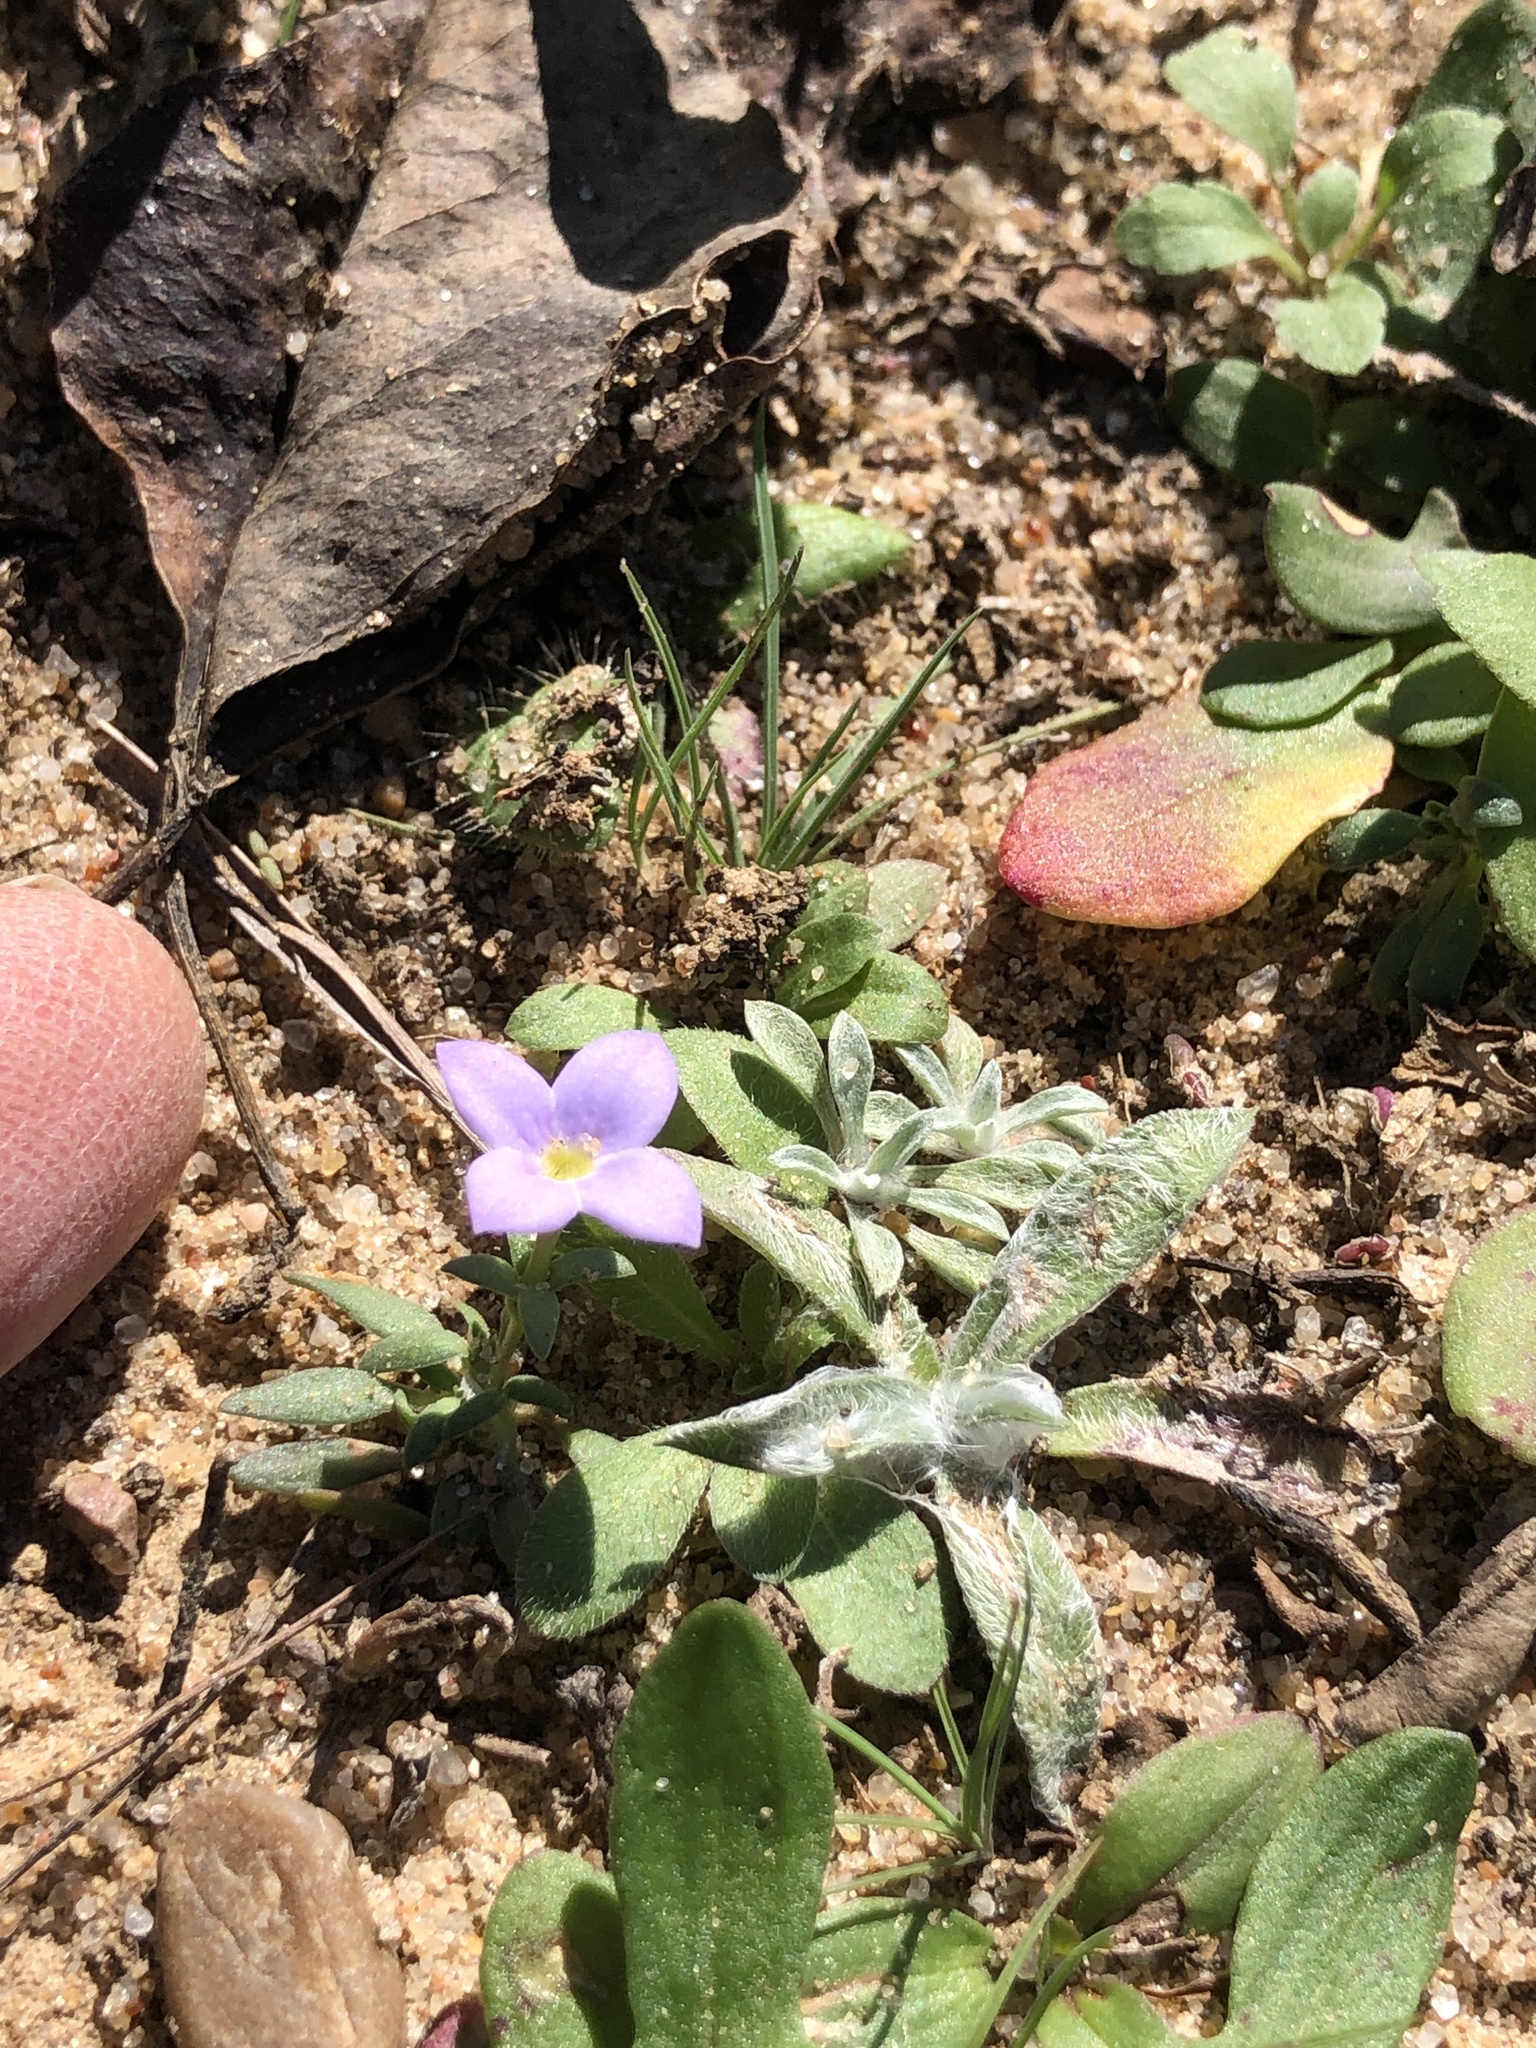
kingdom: Plantae
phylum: Tracheophyta
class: Magnoliopsida
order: Gentianales
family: Rubiaceae
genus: Houstonia
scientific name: Houstonia rosea
